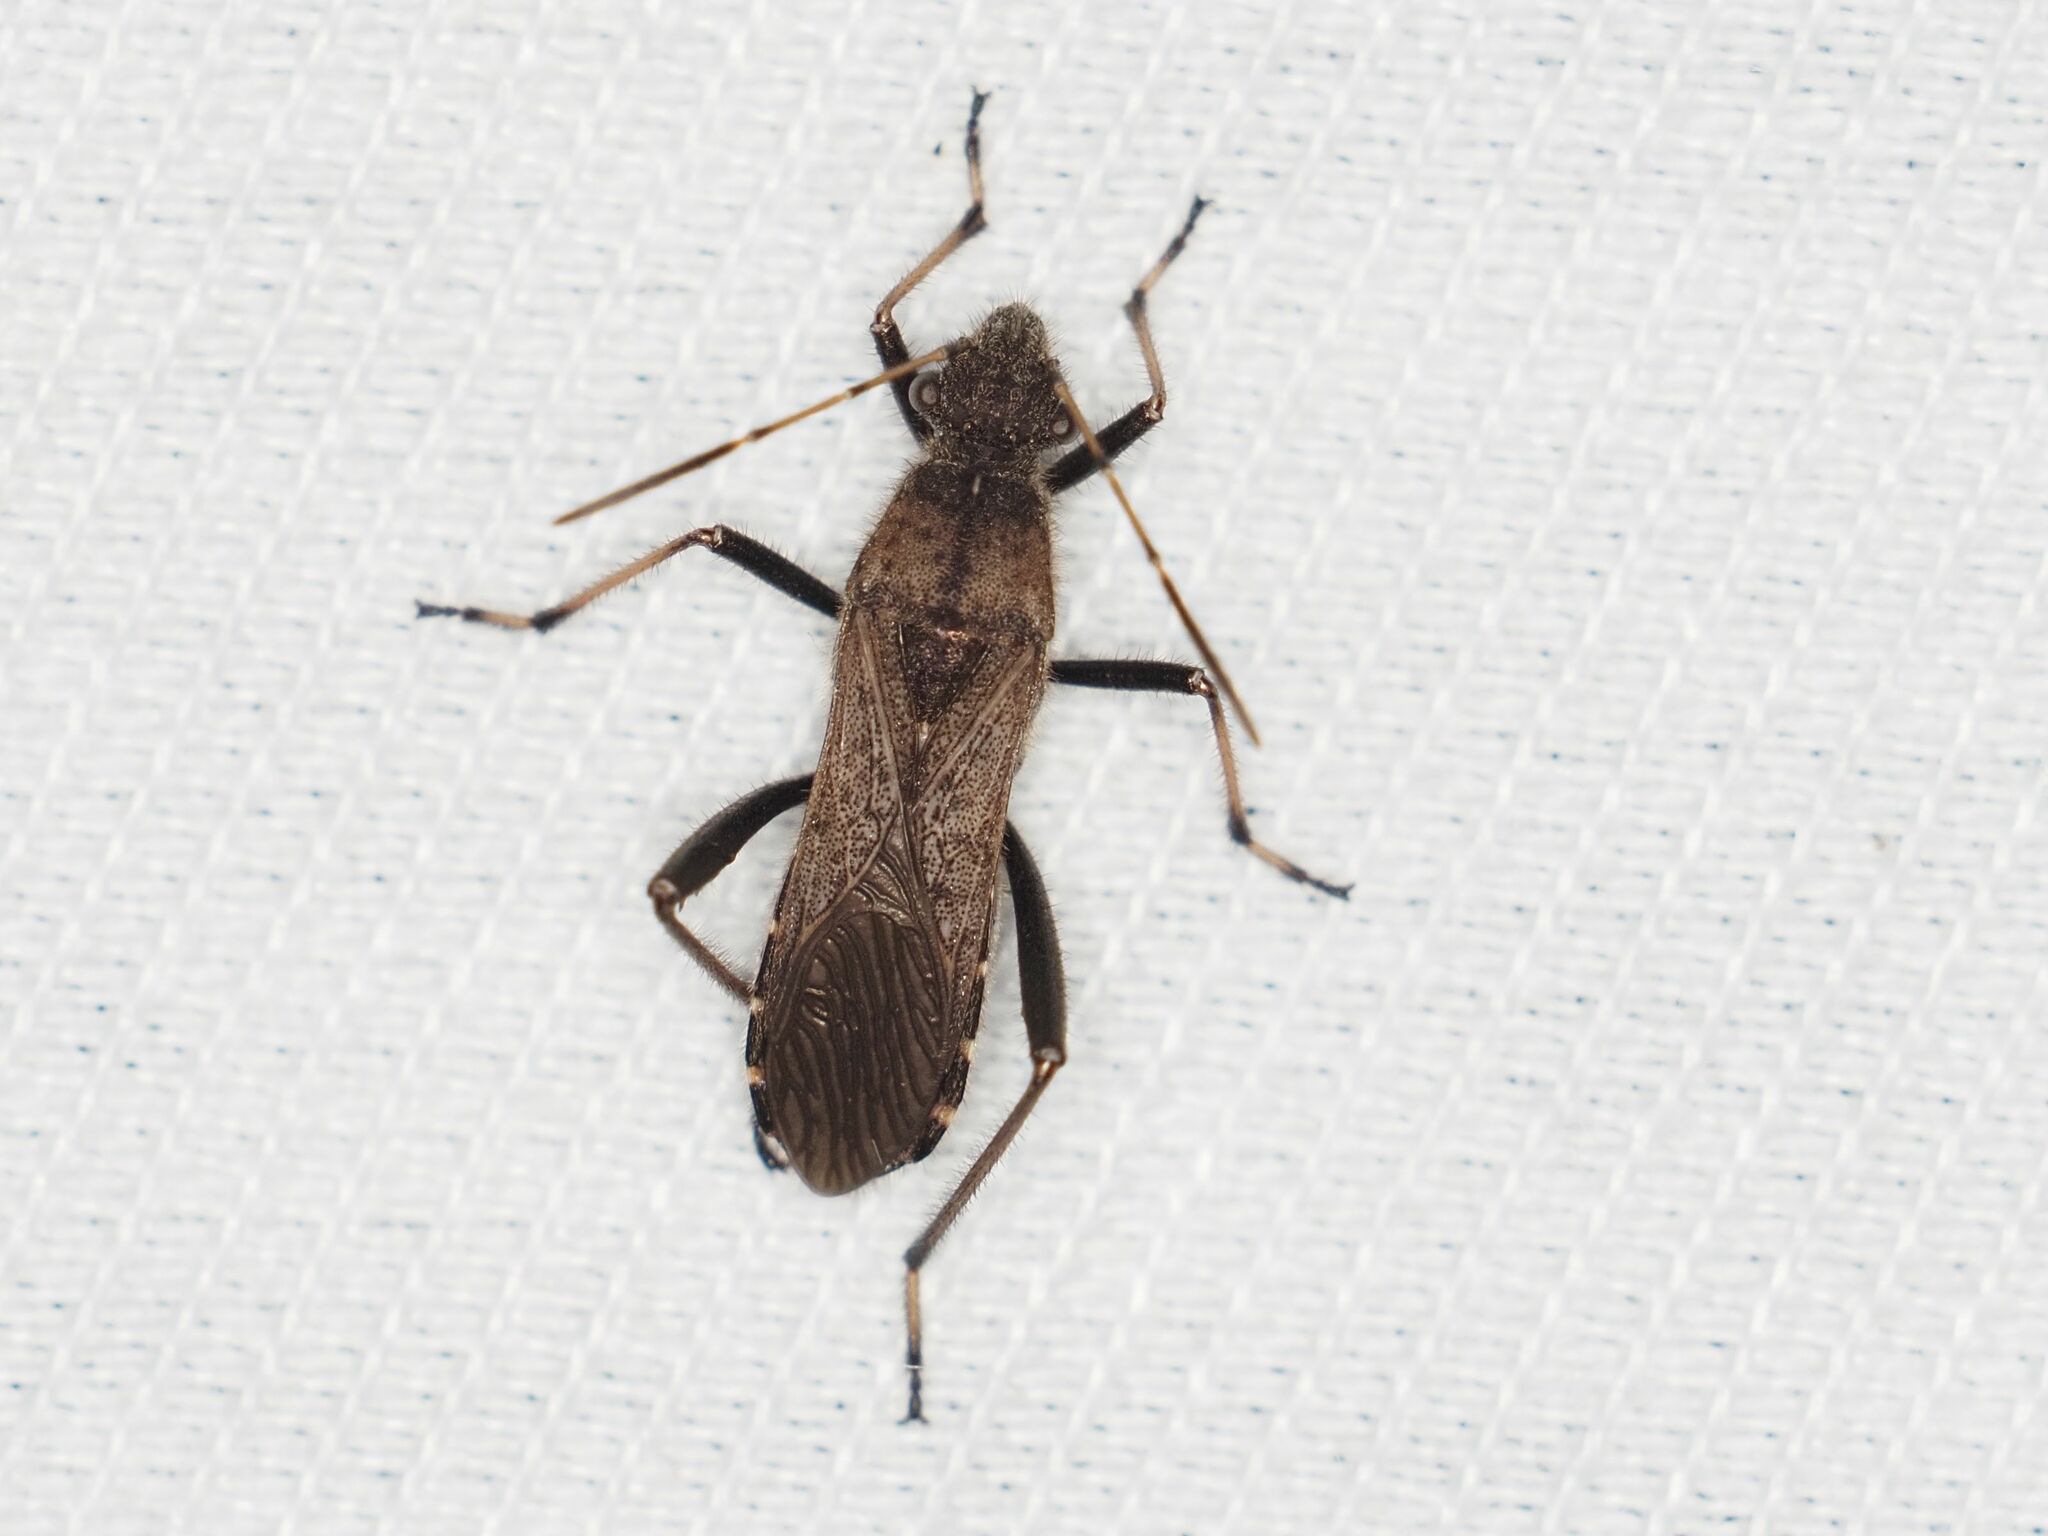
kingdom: Animalia
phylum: Arthropoda
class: Insecta
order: Hemiptera
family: Alydidae
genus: Alydus
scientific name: Alydus calcaratus
